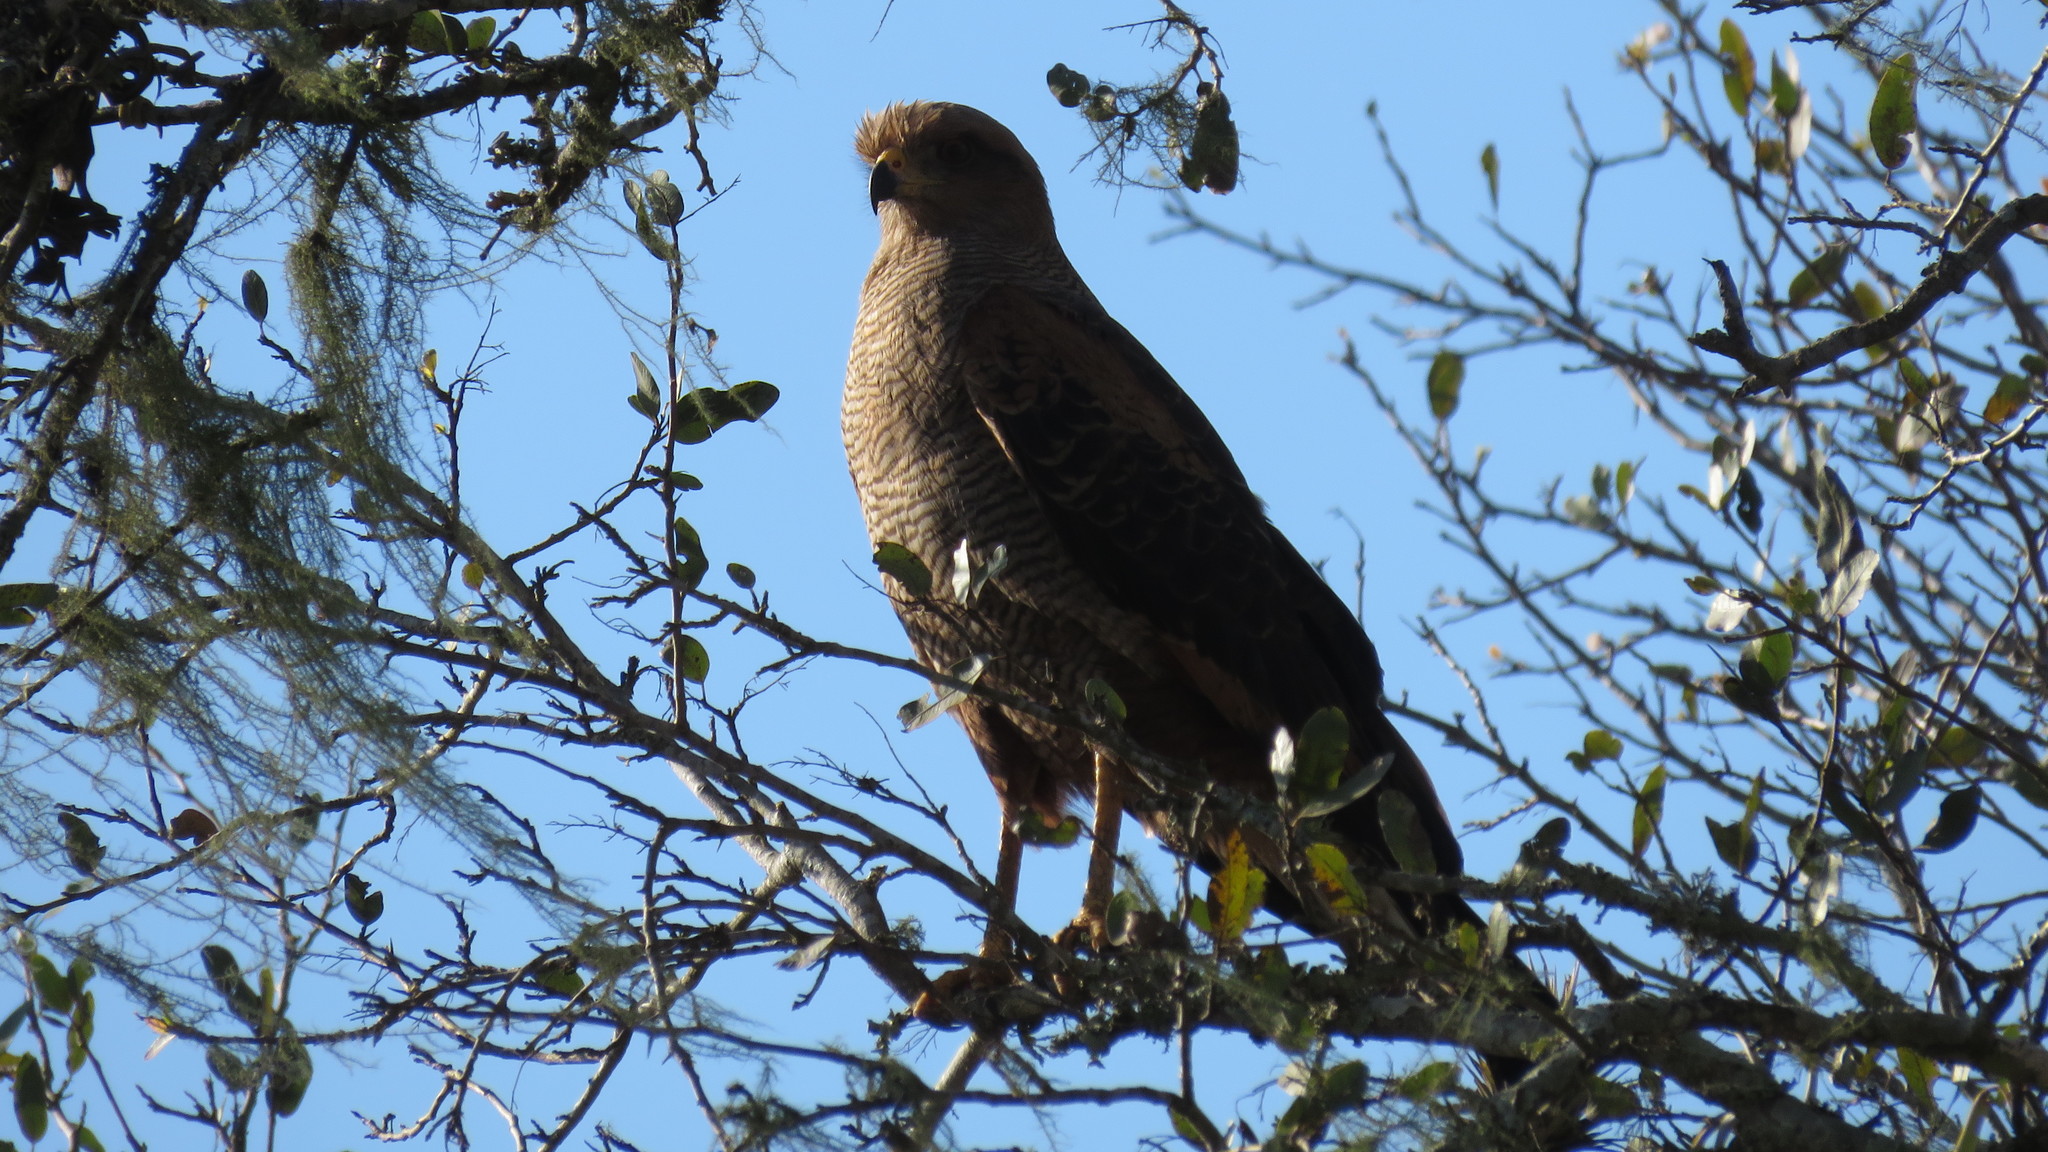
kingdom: Animalia
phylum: Chordata
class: Aves
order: Accipitriformes
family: Accipitridae
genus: Buteogallus
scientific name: Buteogallus meridionalis
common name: Savanna hawk
